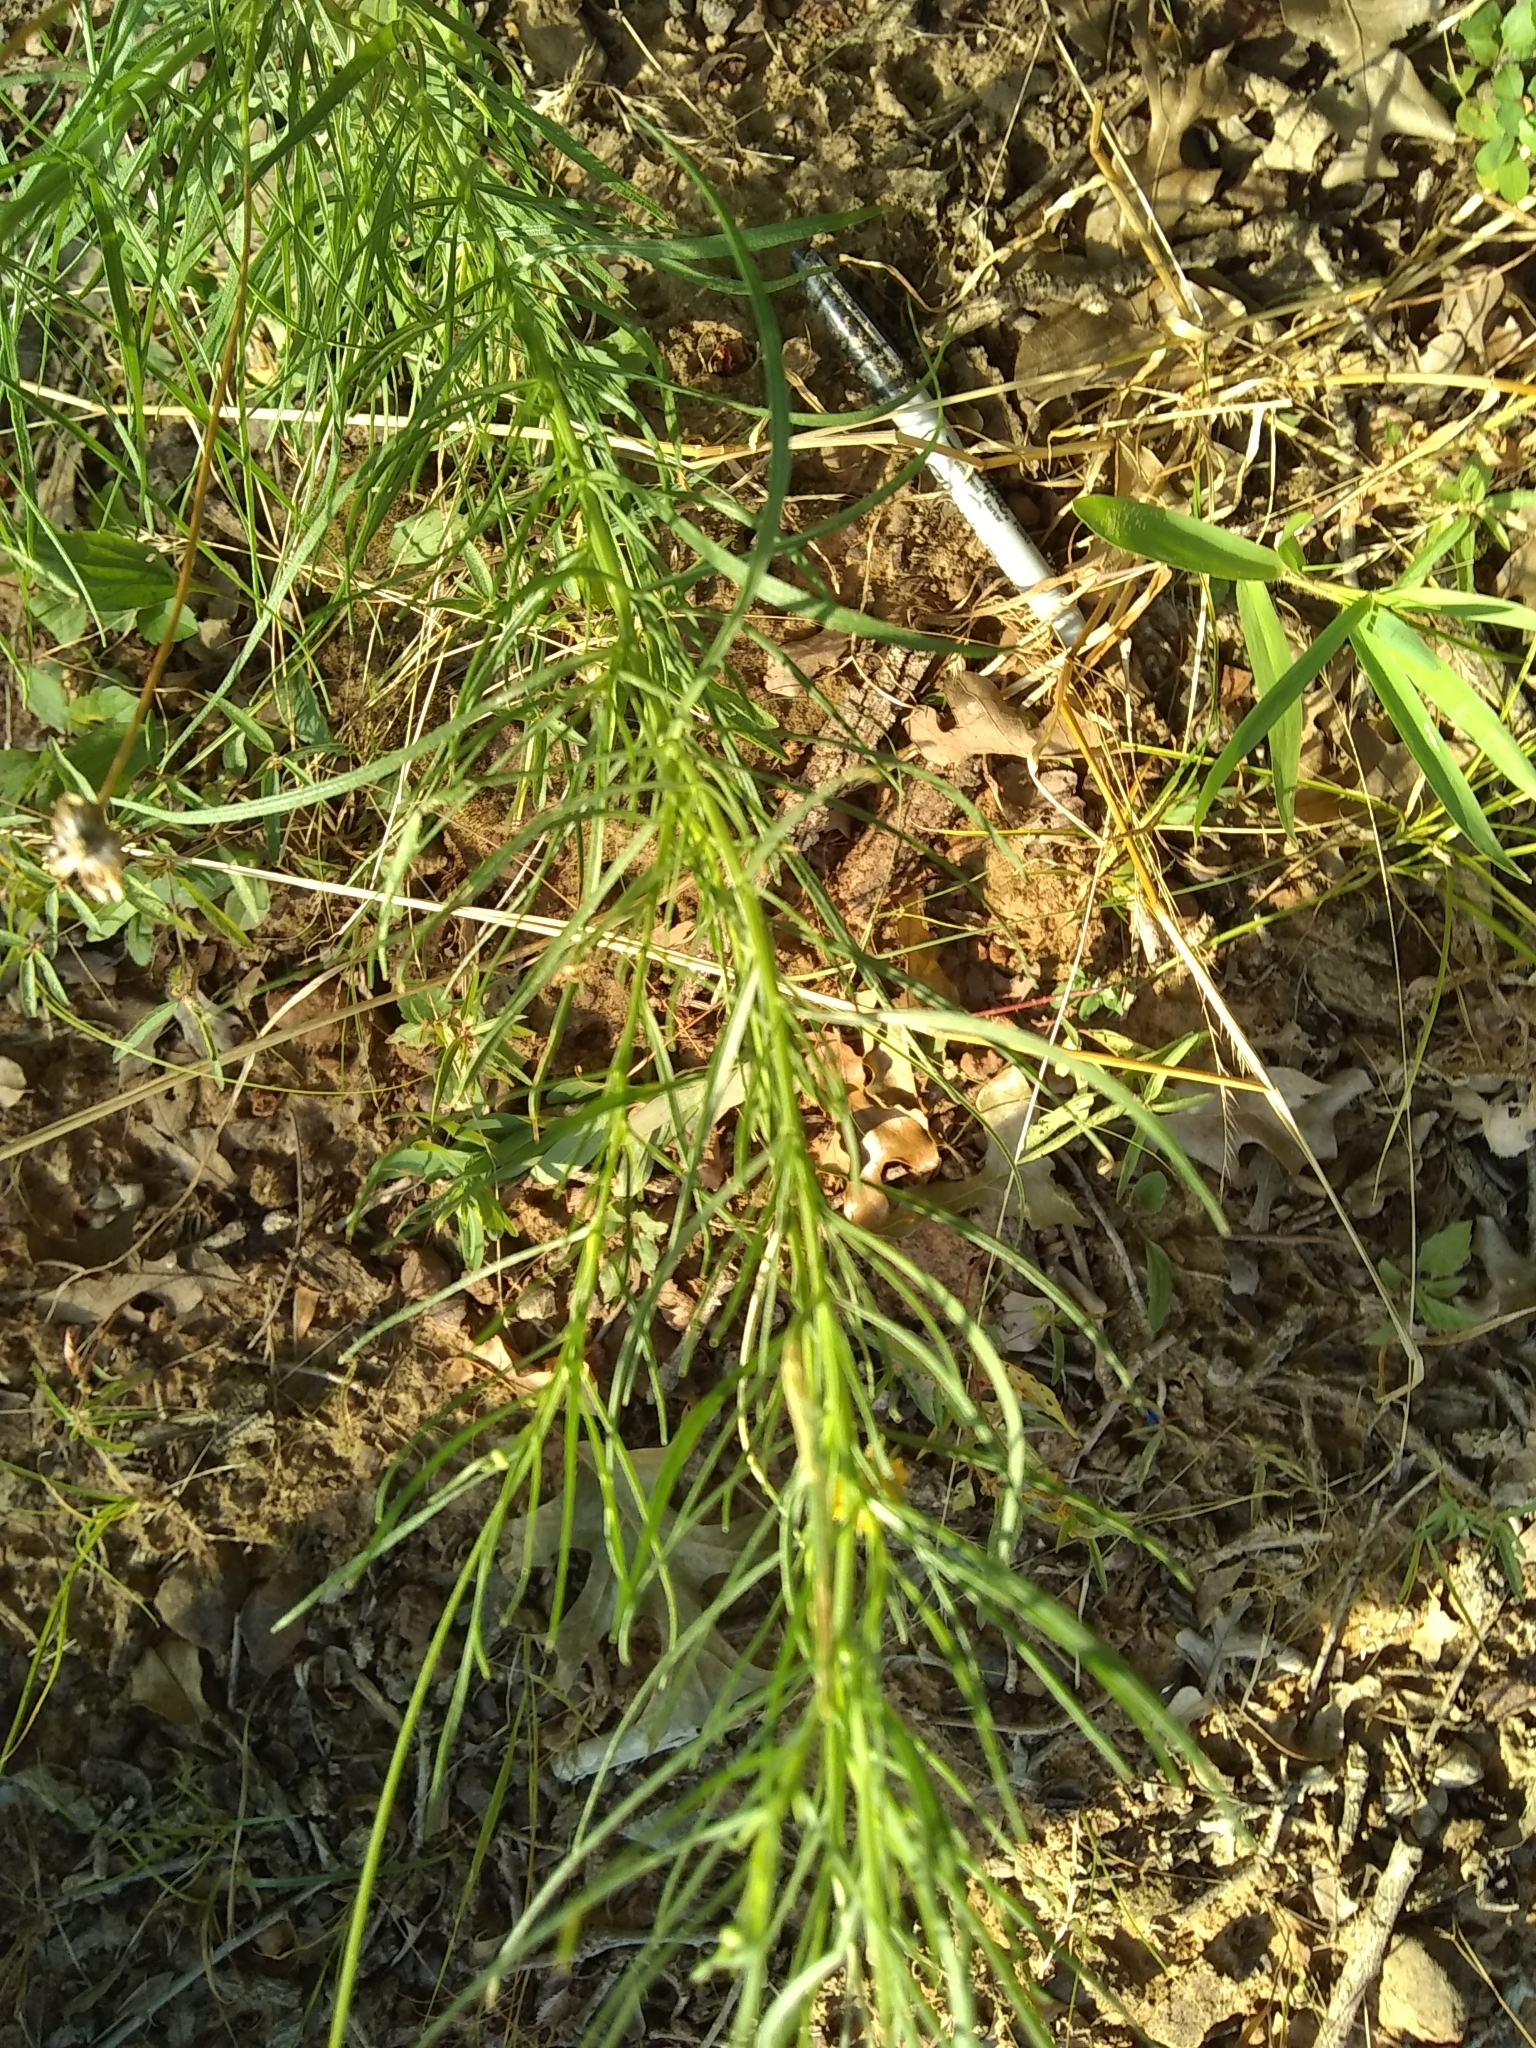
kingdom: Plantae
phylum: Tracheophyta
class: Magnoliopsida
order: Asterales
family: Asteraceae
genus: Helenium
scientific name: Helenium amarum
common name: Bitter sneezeweed
